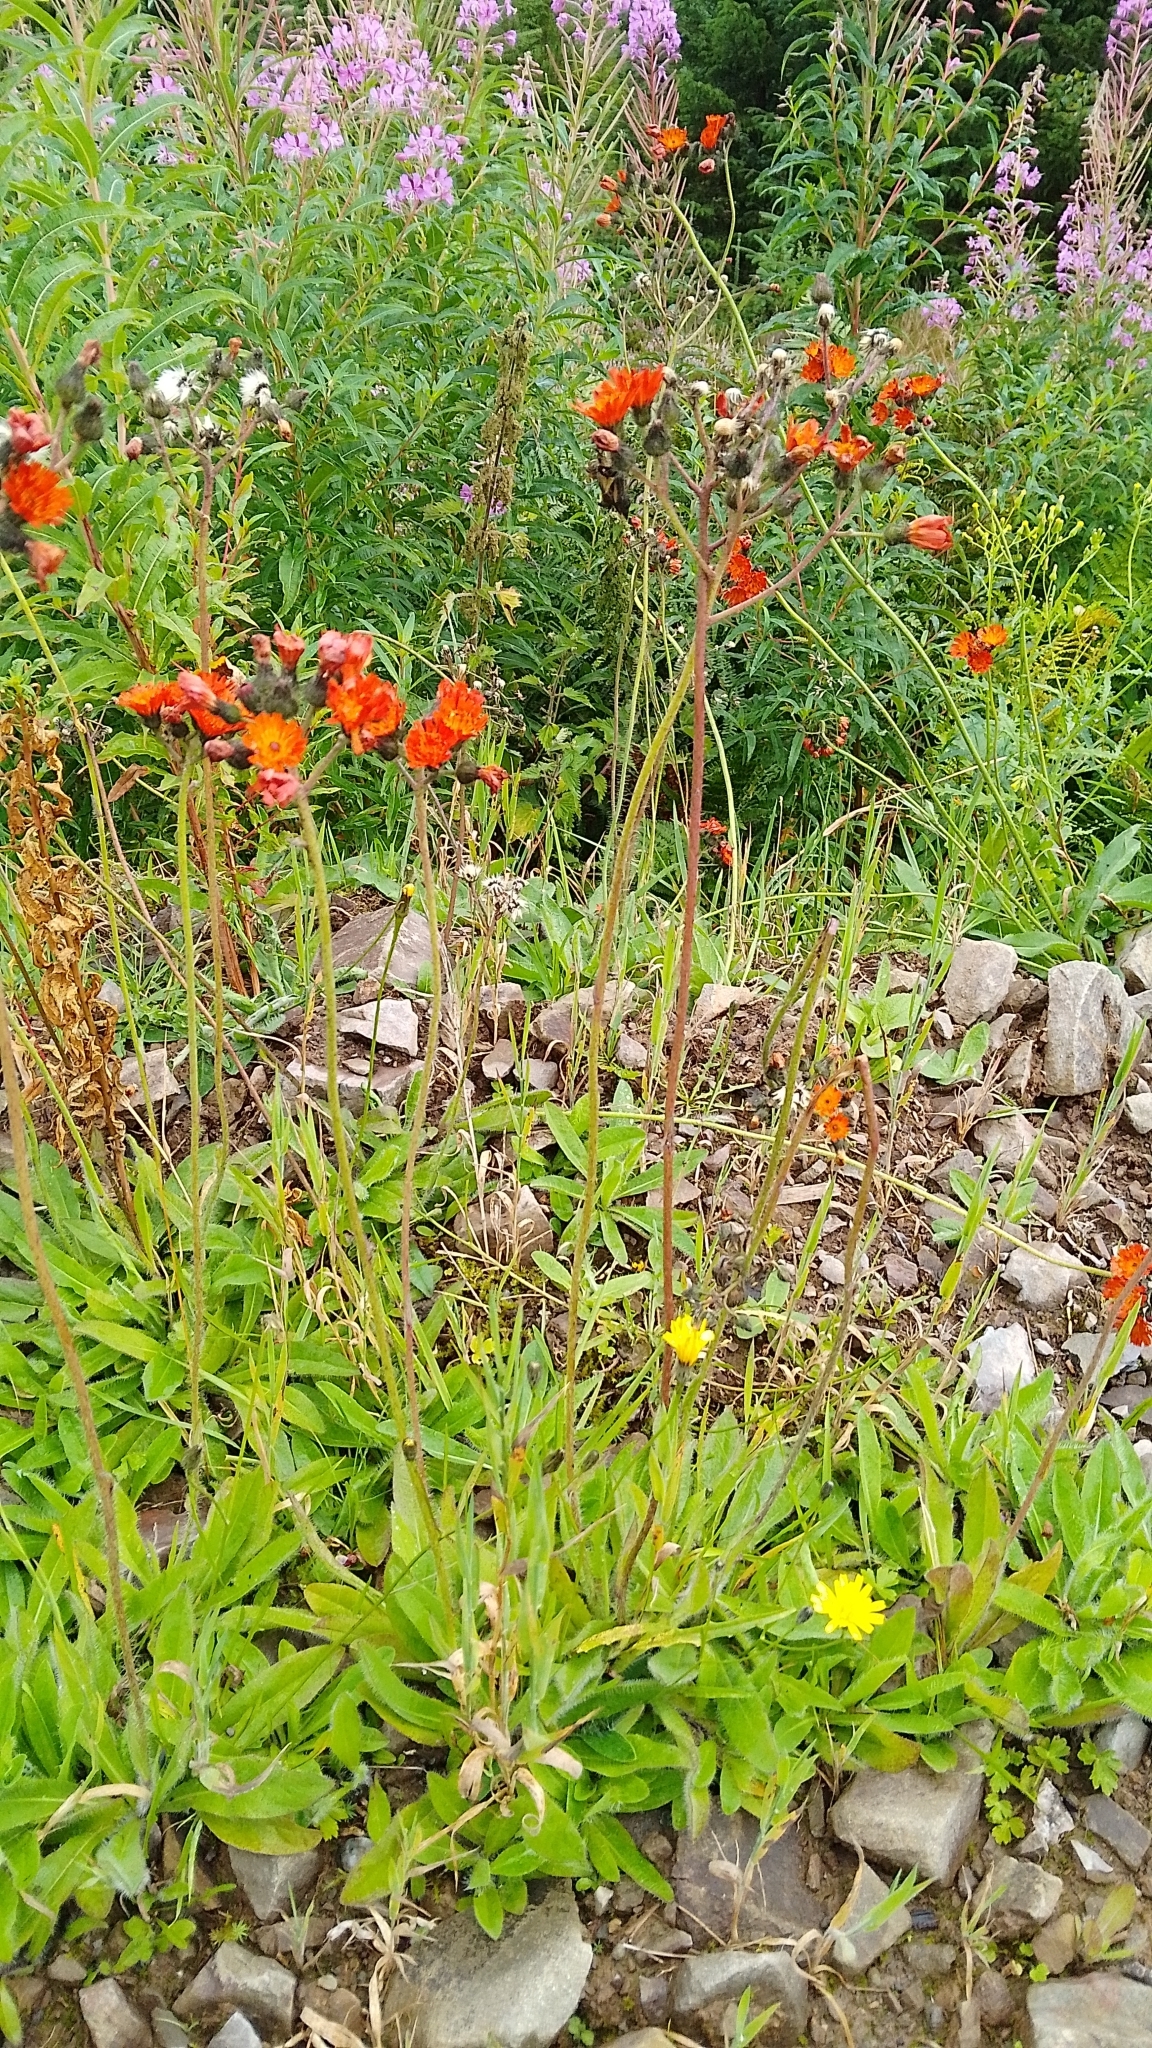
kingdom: Plantae
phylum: Tracheophyta
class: Magnoliopsida
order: Asterales
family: Asteraceae
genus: Pilosella
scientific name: Pilosella aurantiaca
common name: Fox-and-cubs
